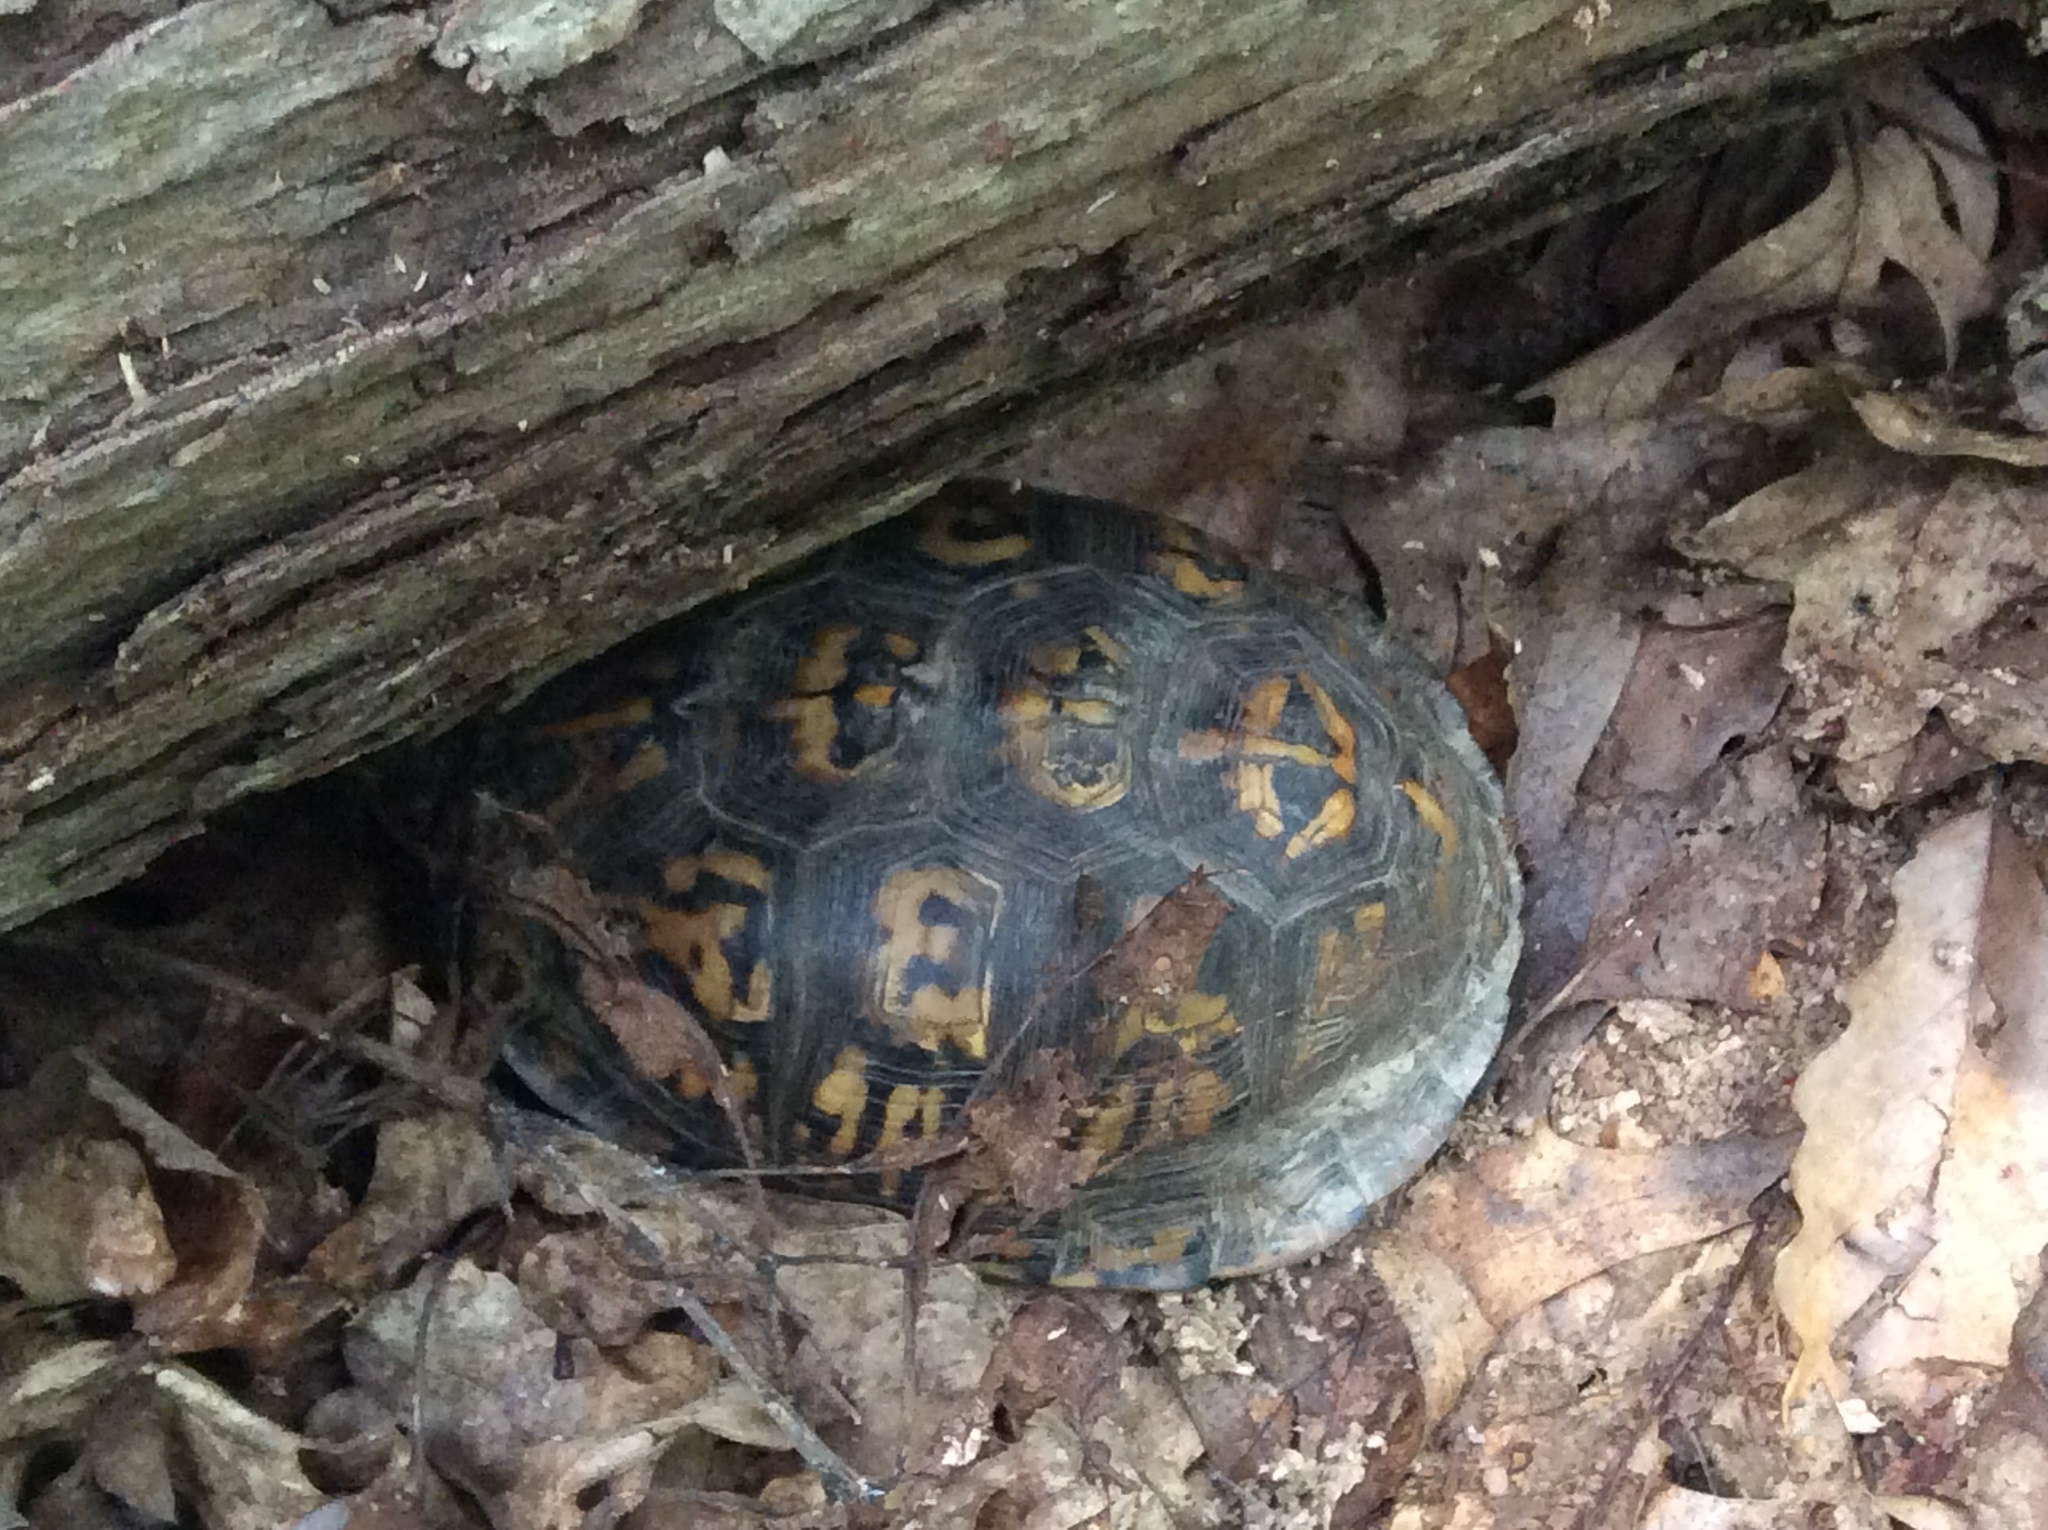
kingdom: Animalia
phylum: Chordata
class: Testudines
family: Emydidae
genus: Terrapene
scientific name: Terrapene carolina
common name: Common box turtle
